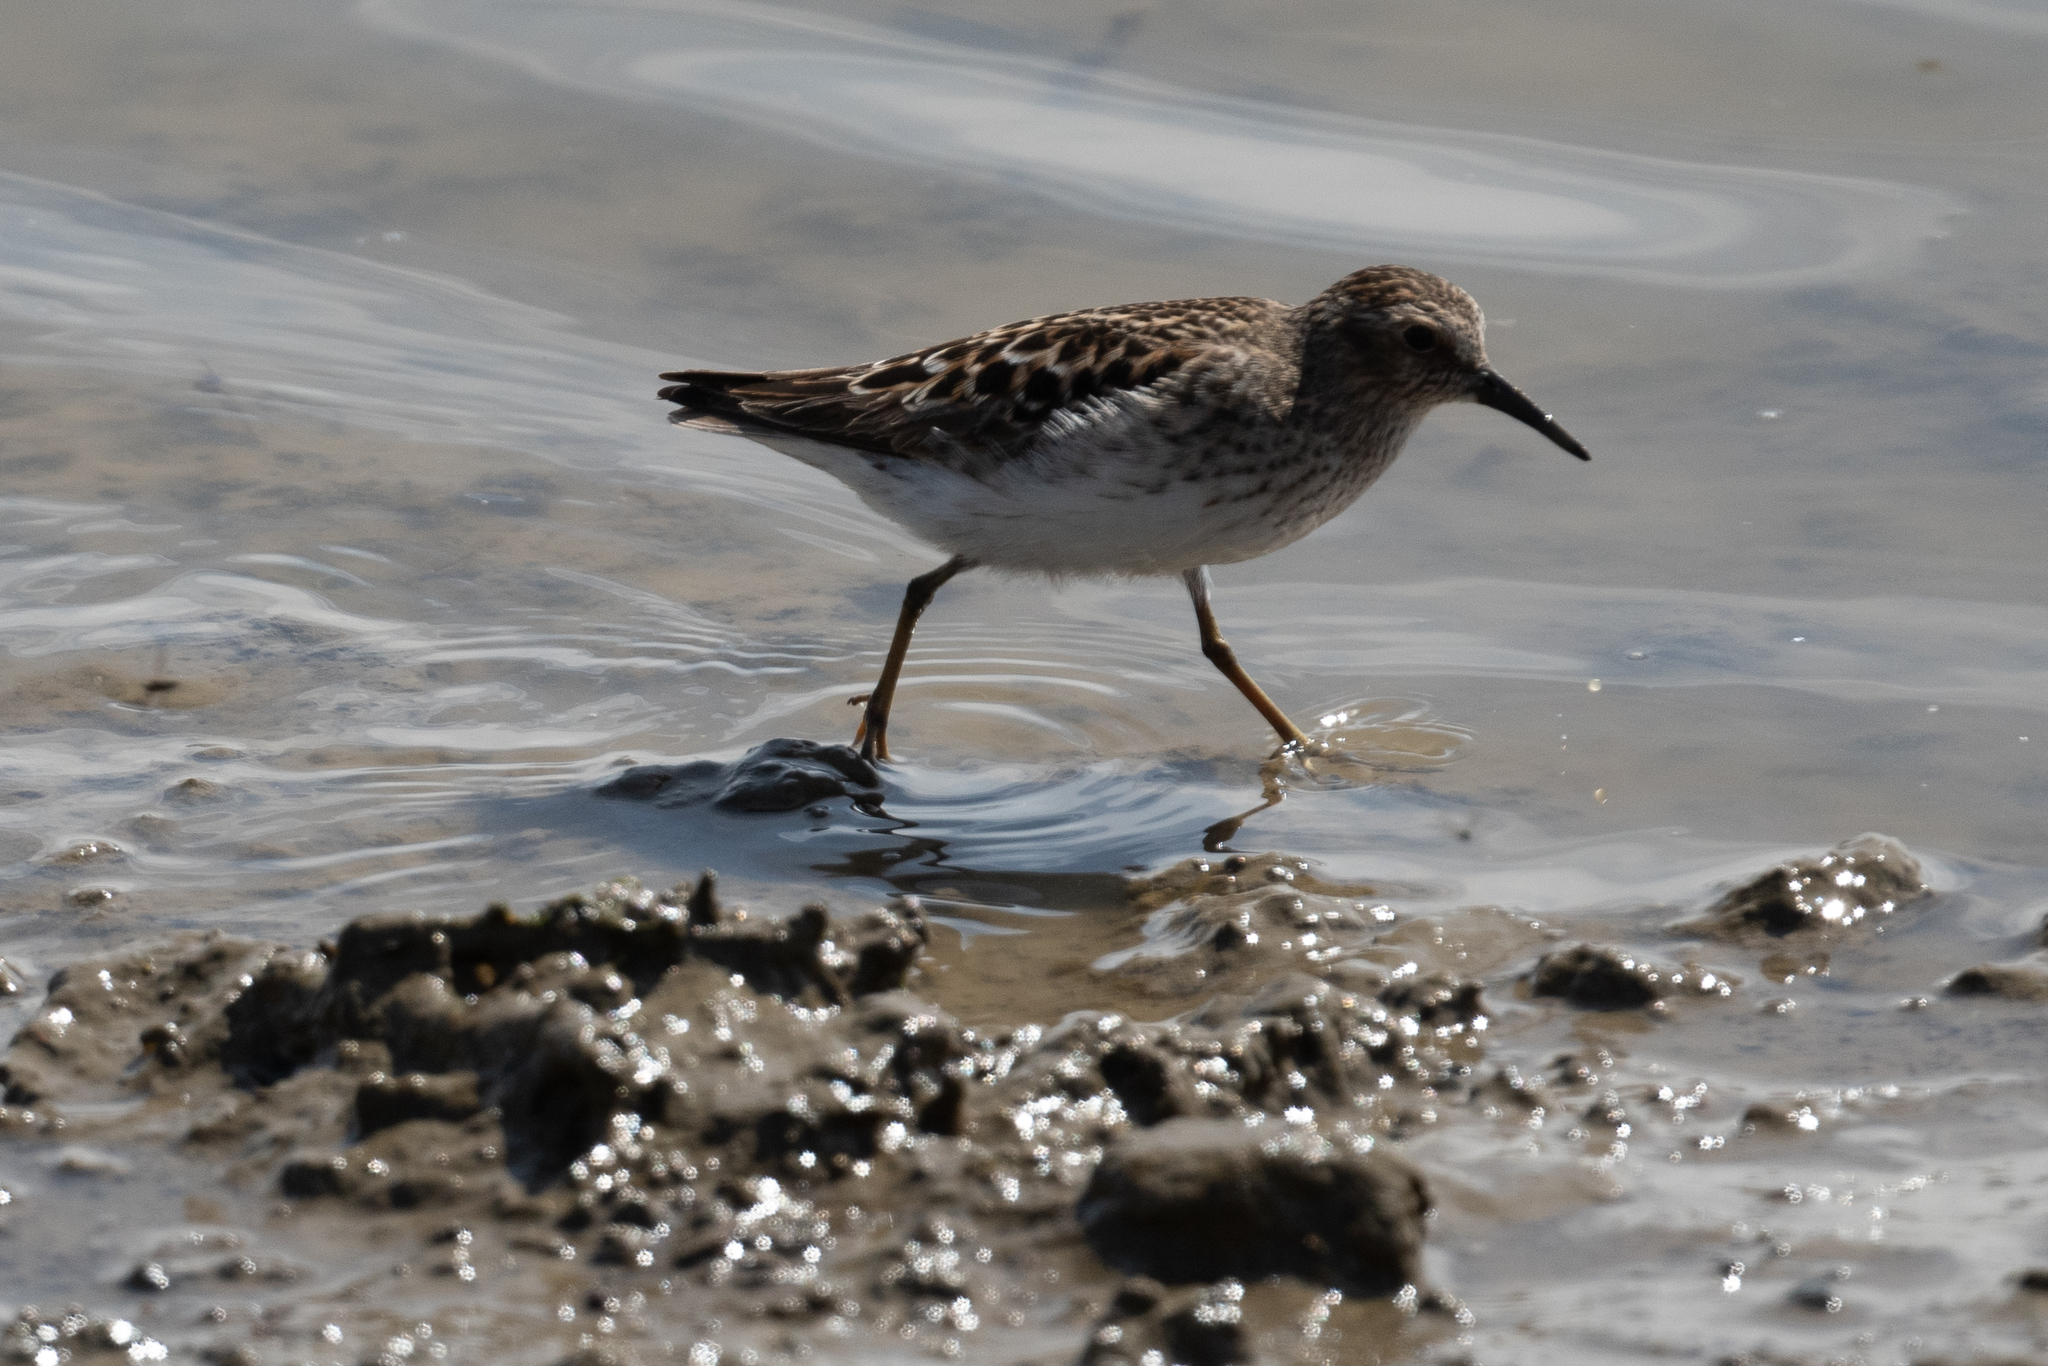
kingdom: Animalia
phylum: Chordata
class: Aves
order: Charadriiformes
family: Scolopacidae
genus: Calidris
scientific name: Calidris minutilla
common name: Least sandpiper
